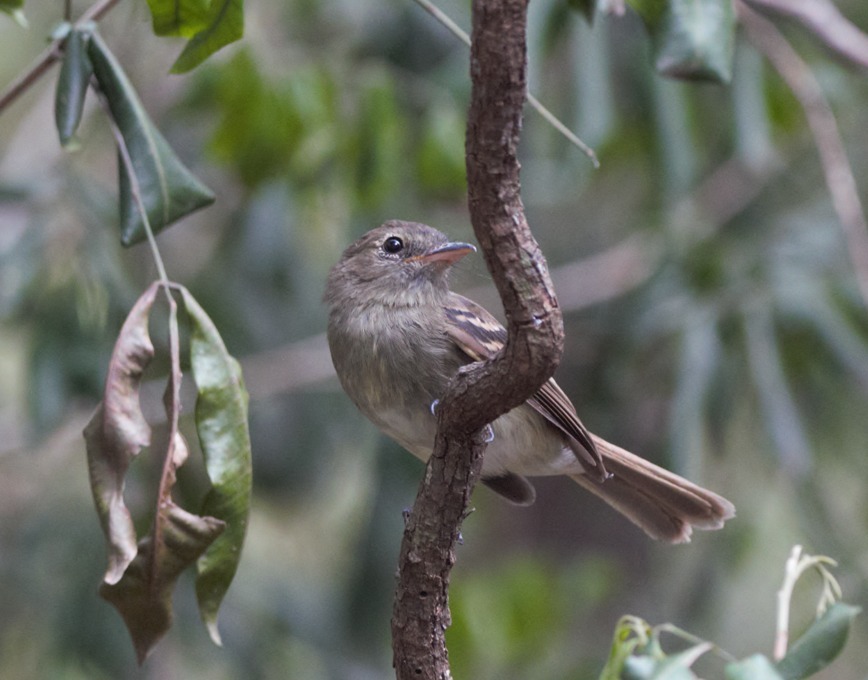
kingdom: Animalia
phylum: Chordata
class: Aves
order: Passeriformes
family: Tyrannidae
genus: Lathrotriccus
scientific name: Lathrotriccus euleri
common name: Euler's flycatcher
